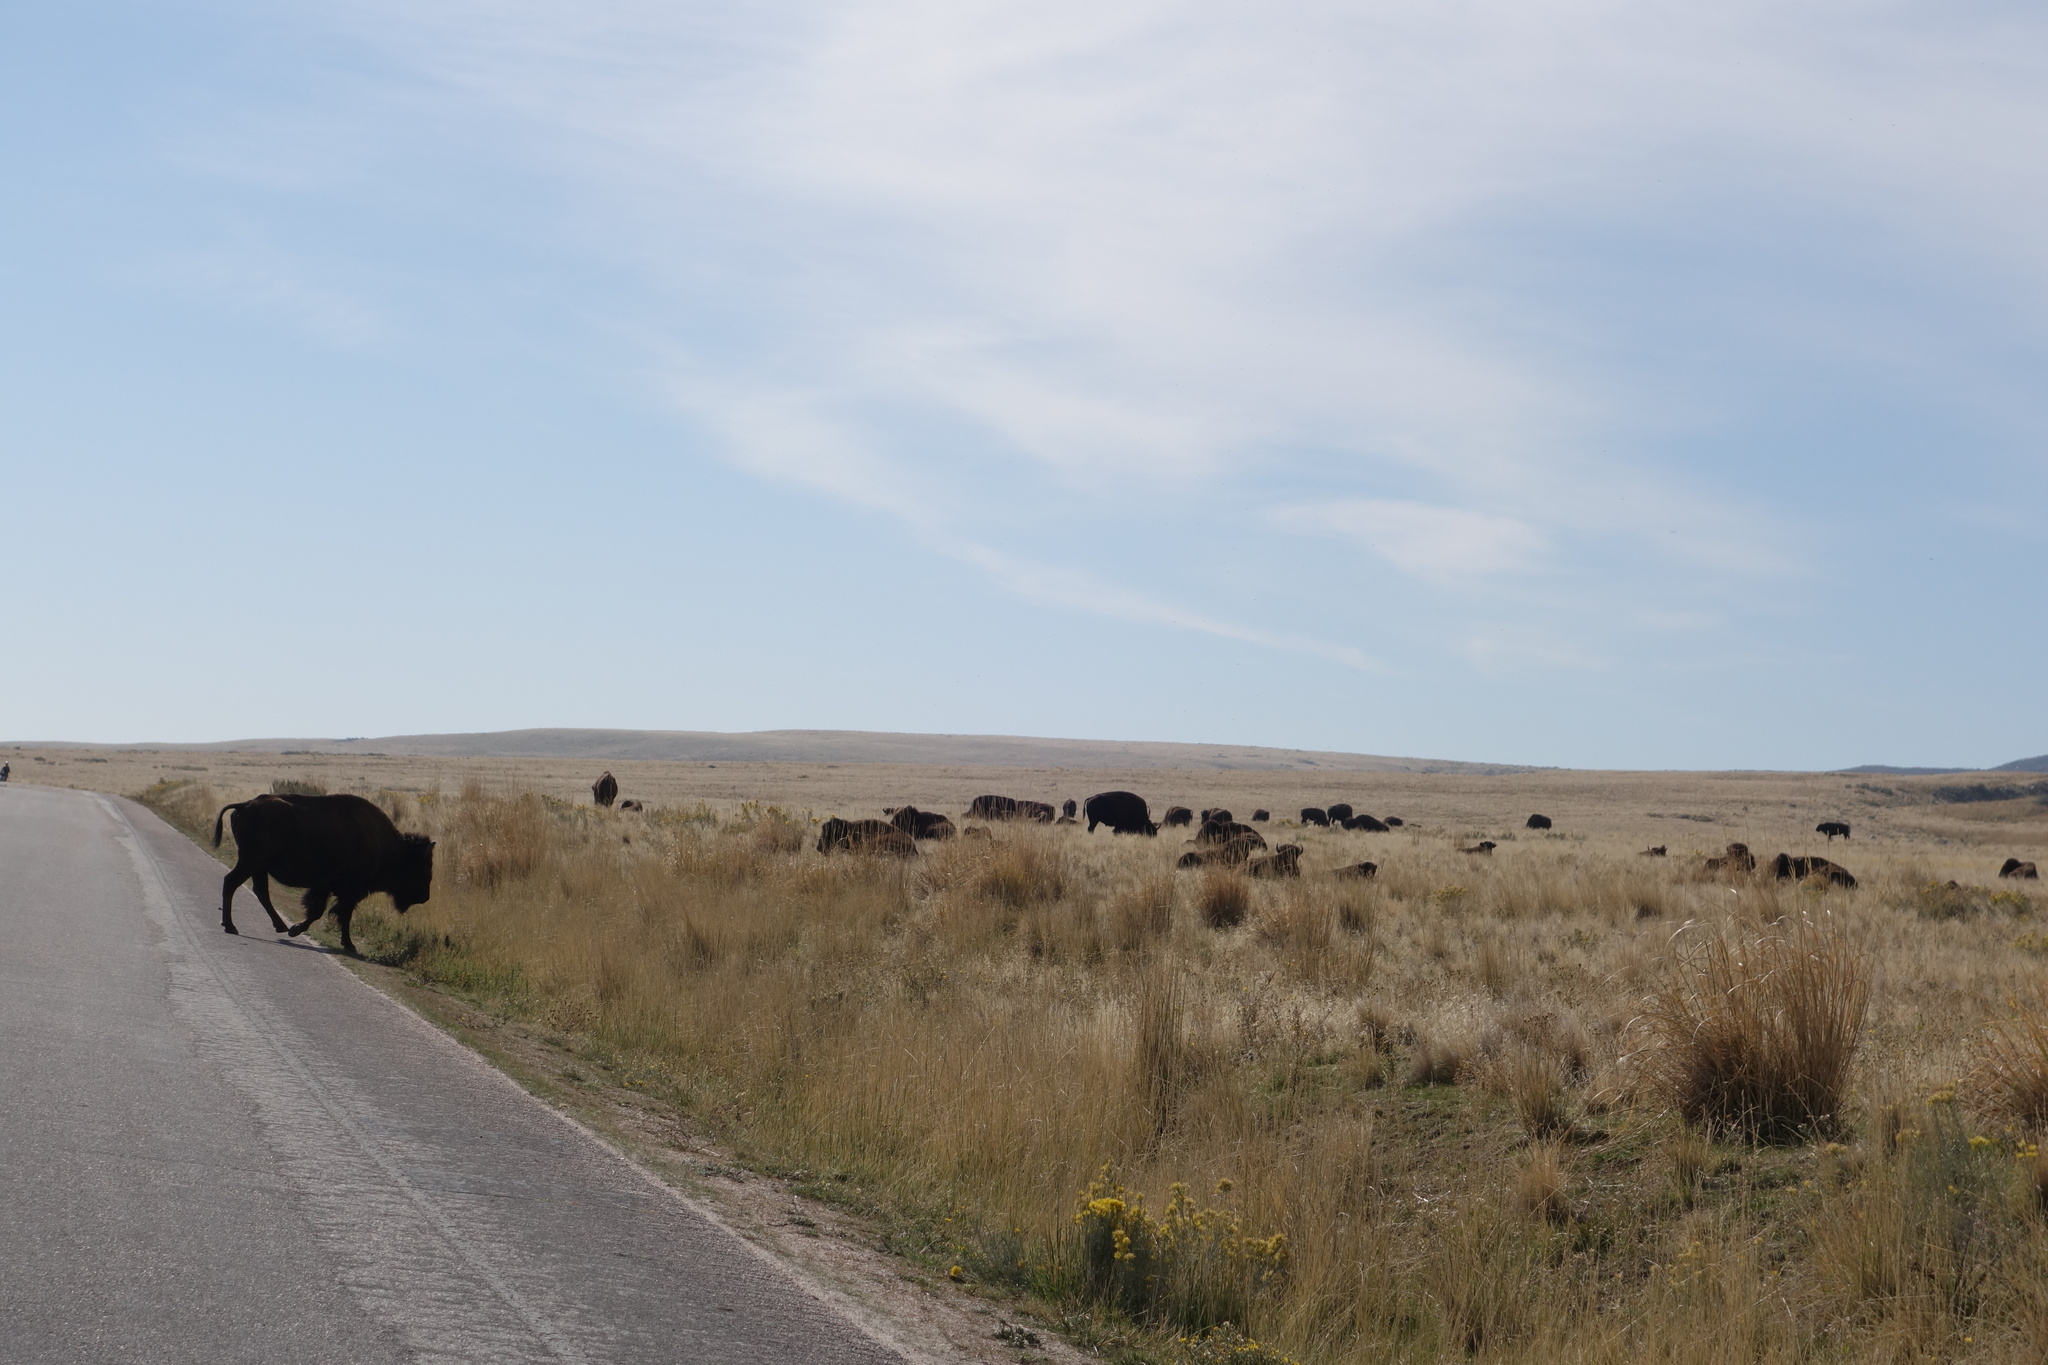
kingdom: Animalia
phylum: Chordata
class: Mammalia
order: Artiodactyla
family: Bovidae
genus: Bison
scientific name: Bison bison
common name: American bison
